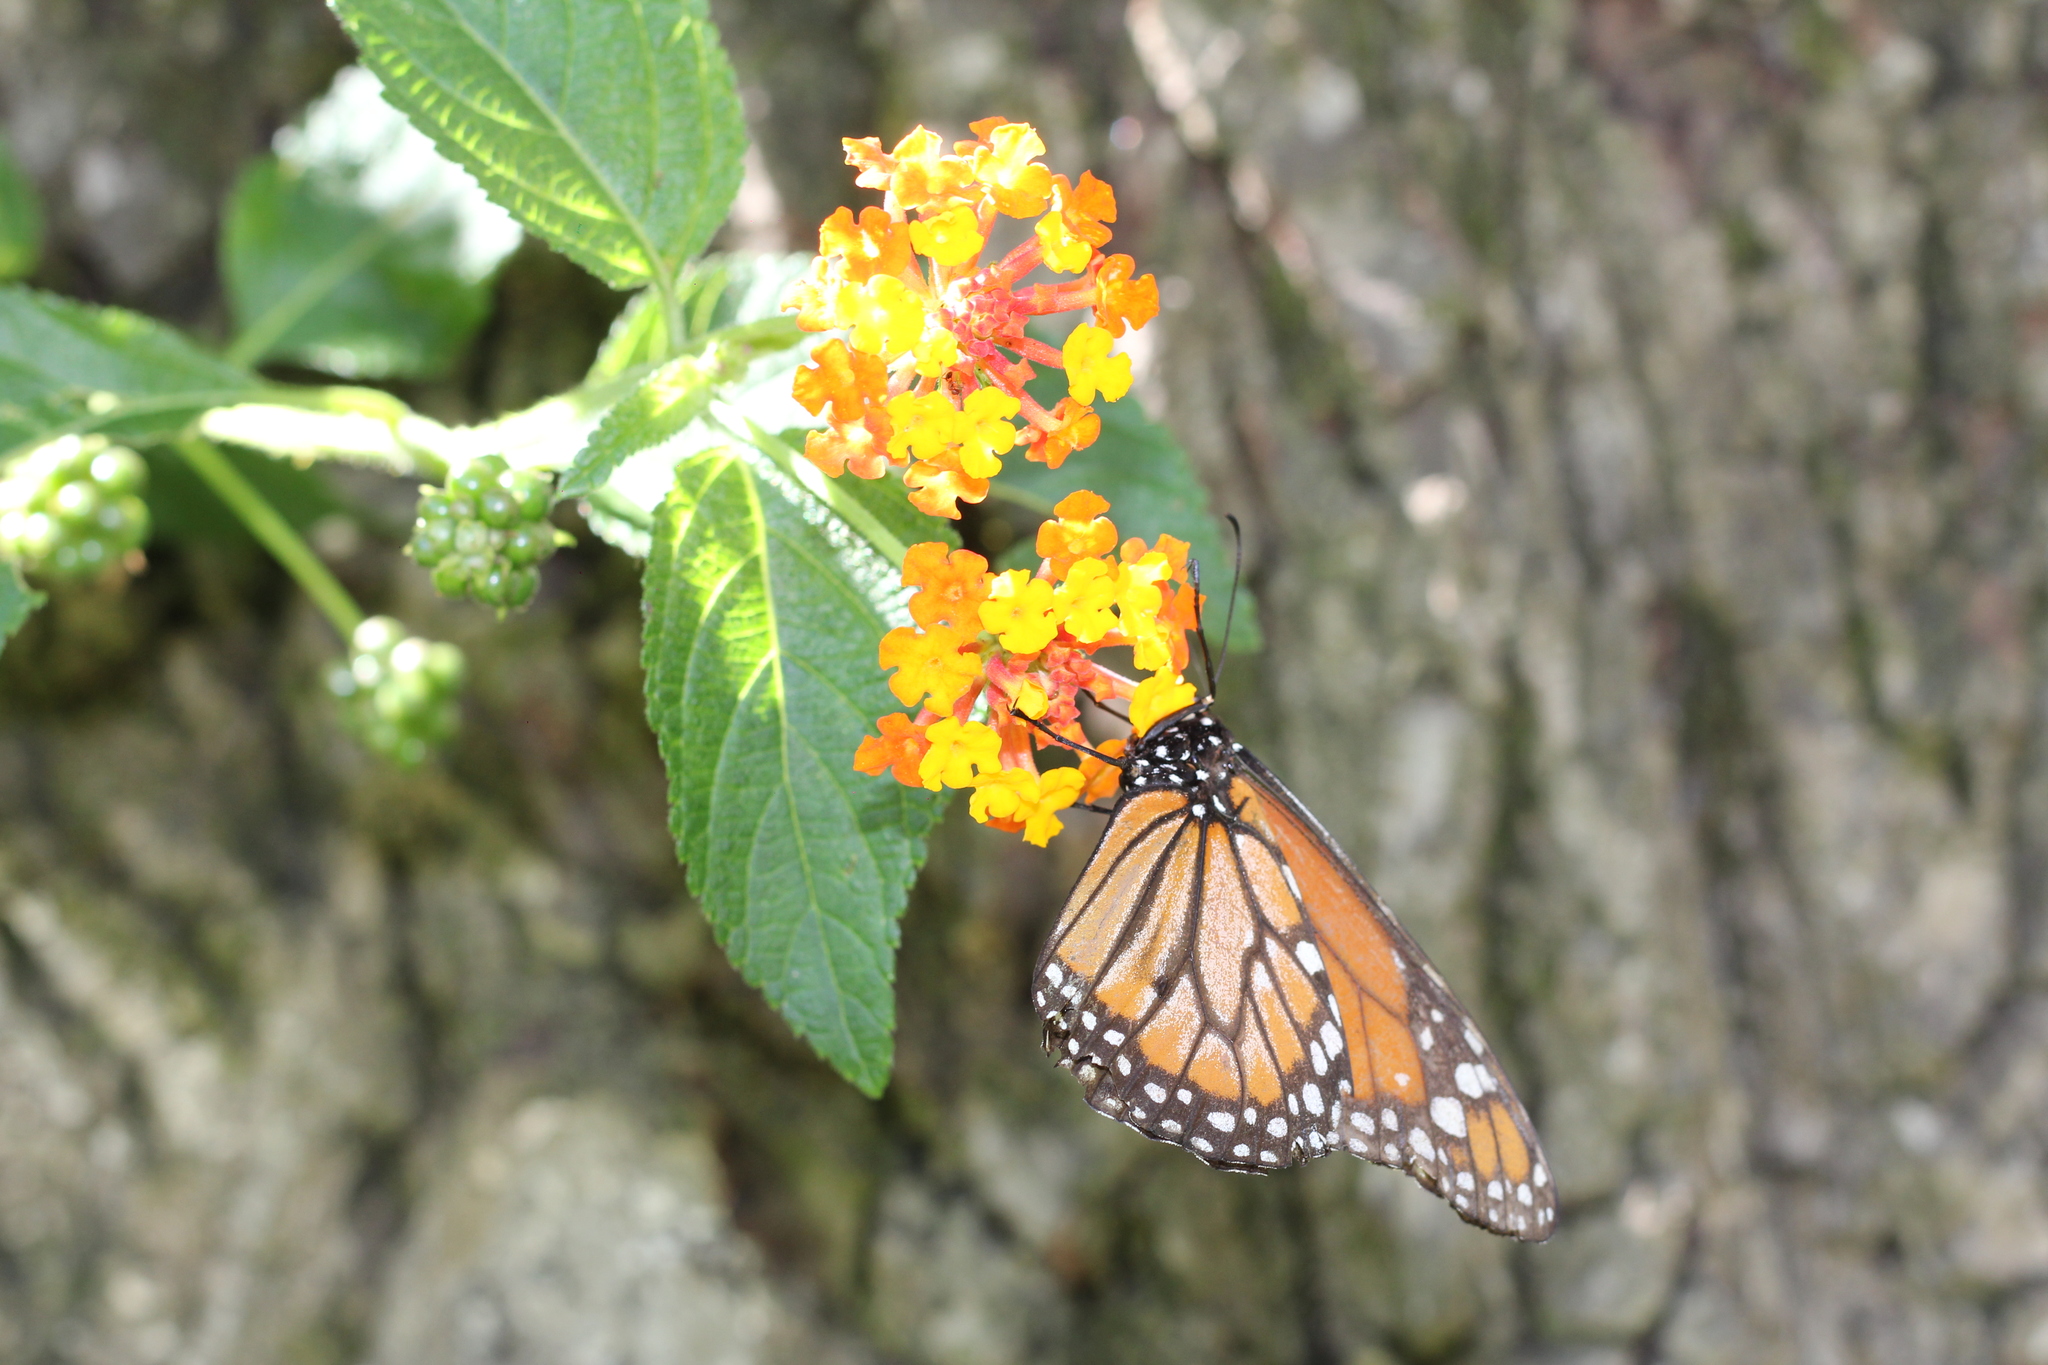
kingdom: Animalia
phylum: Arthropoda
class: Insecta
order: Lepidoptera
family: Nymphalidae
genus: Danaus
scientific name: Danaus erippus
